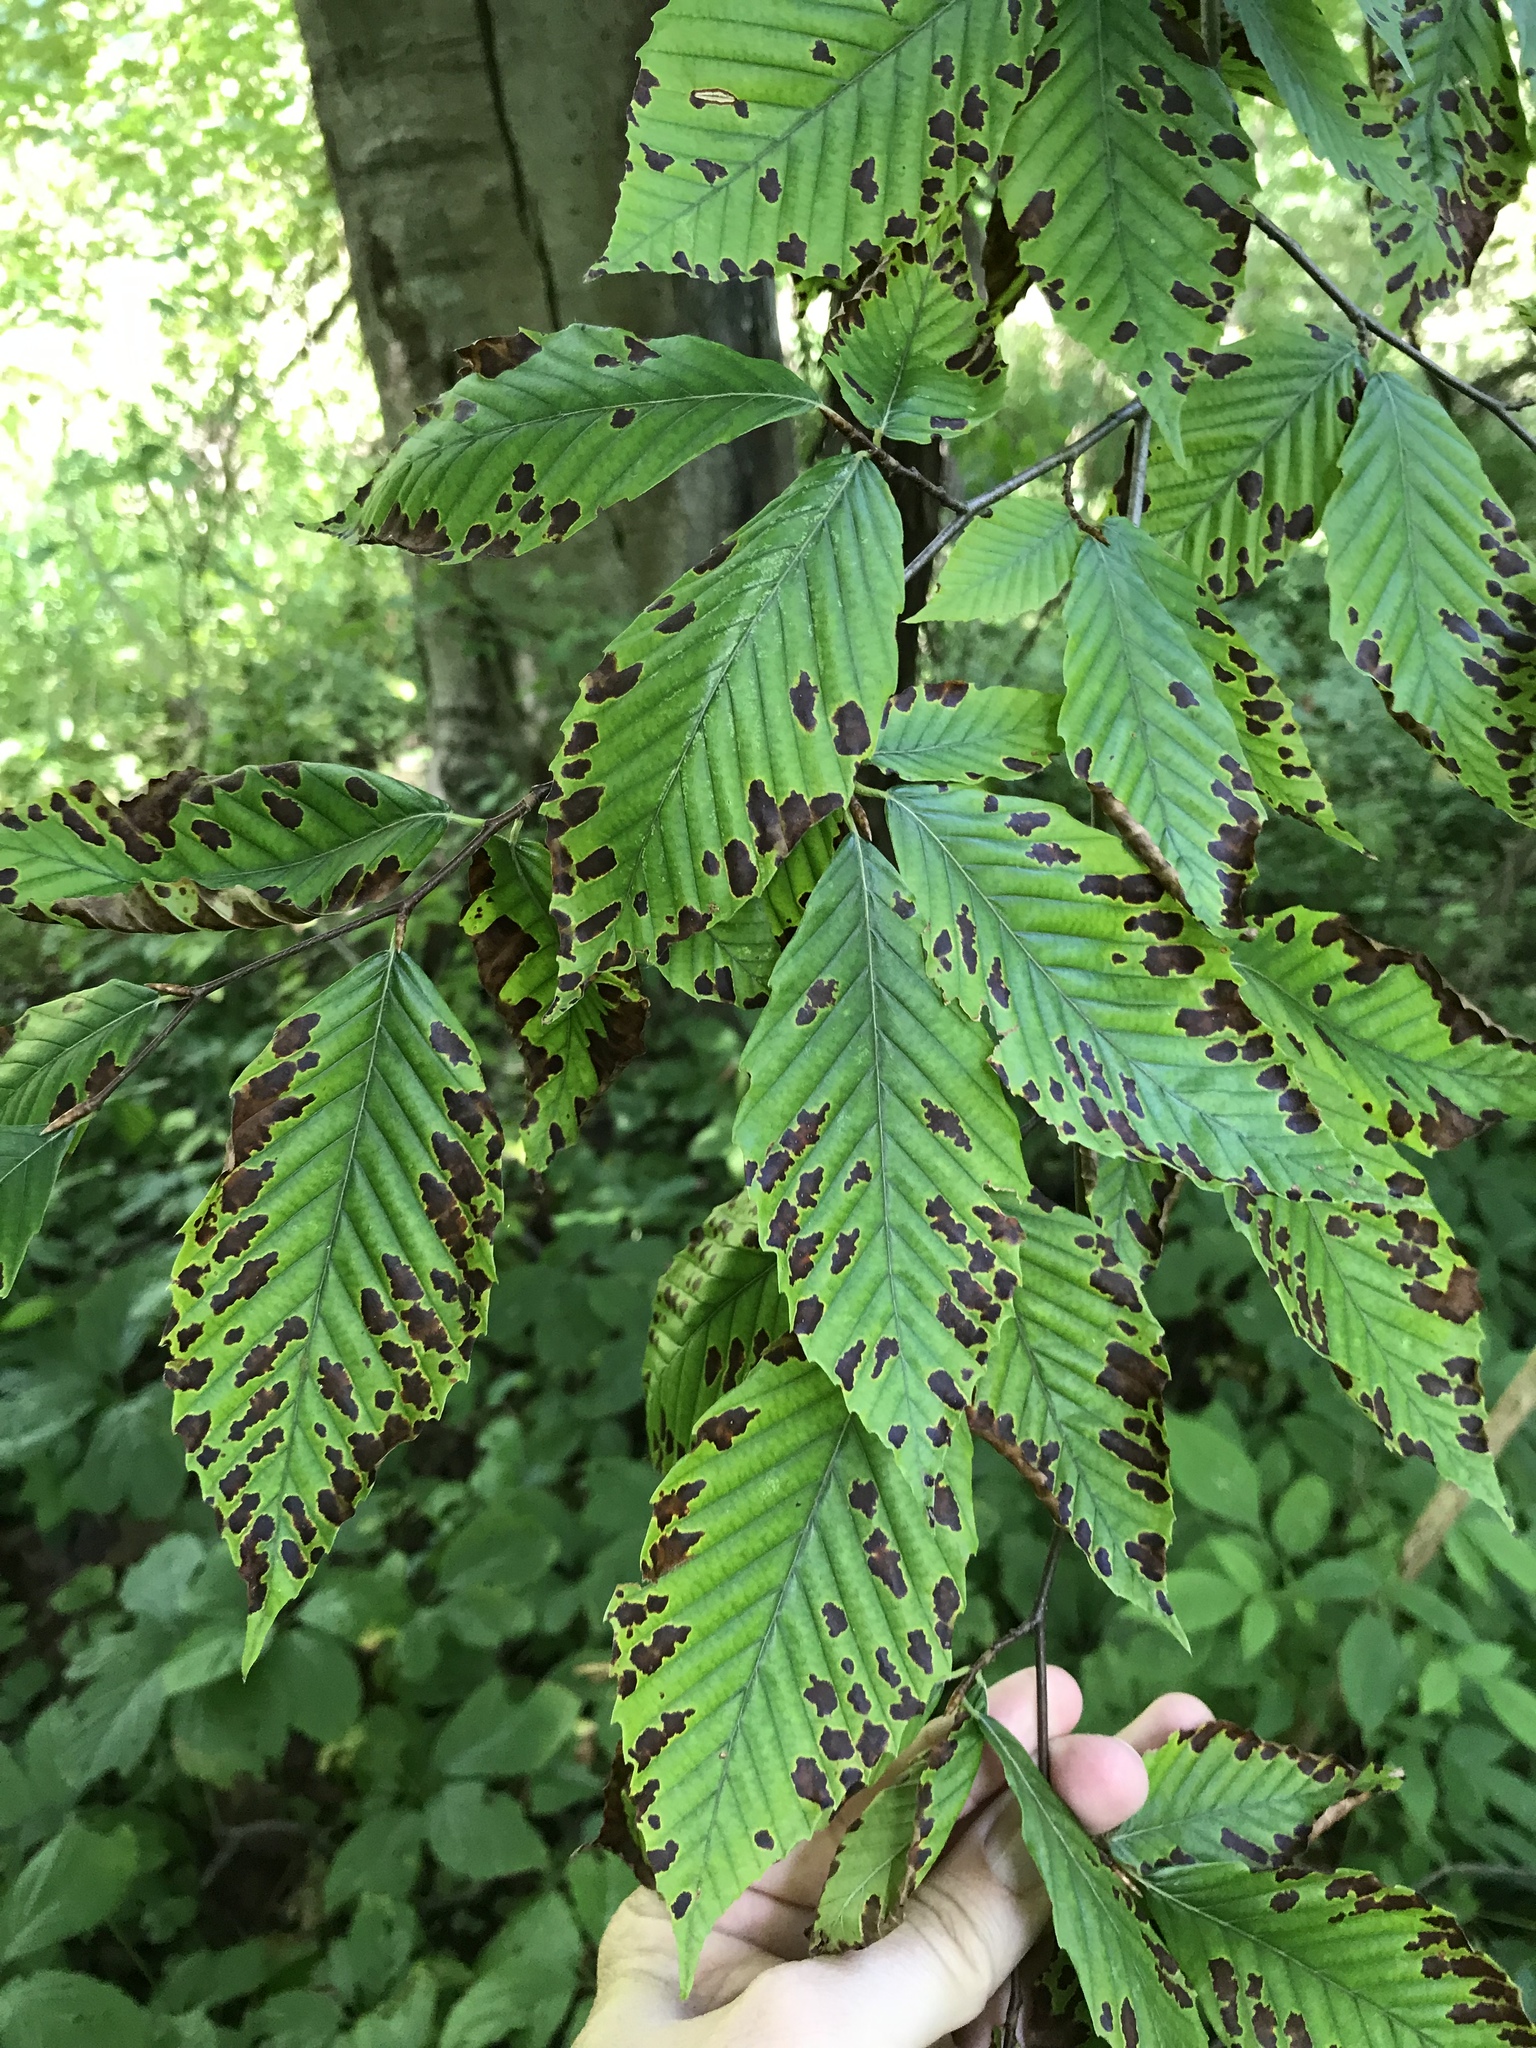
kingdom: Plantae
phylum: Tracheophyta
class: Magnoliopsida
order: Fagales
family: Fagaceae
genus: Fagus
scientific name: Fagus grandifolia
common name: American beech
